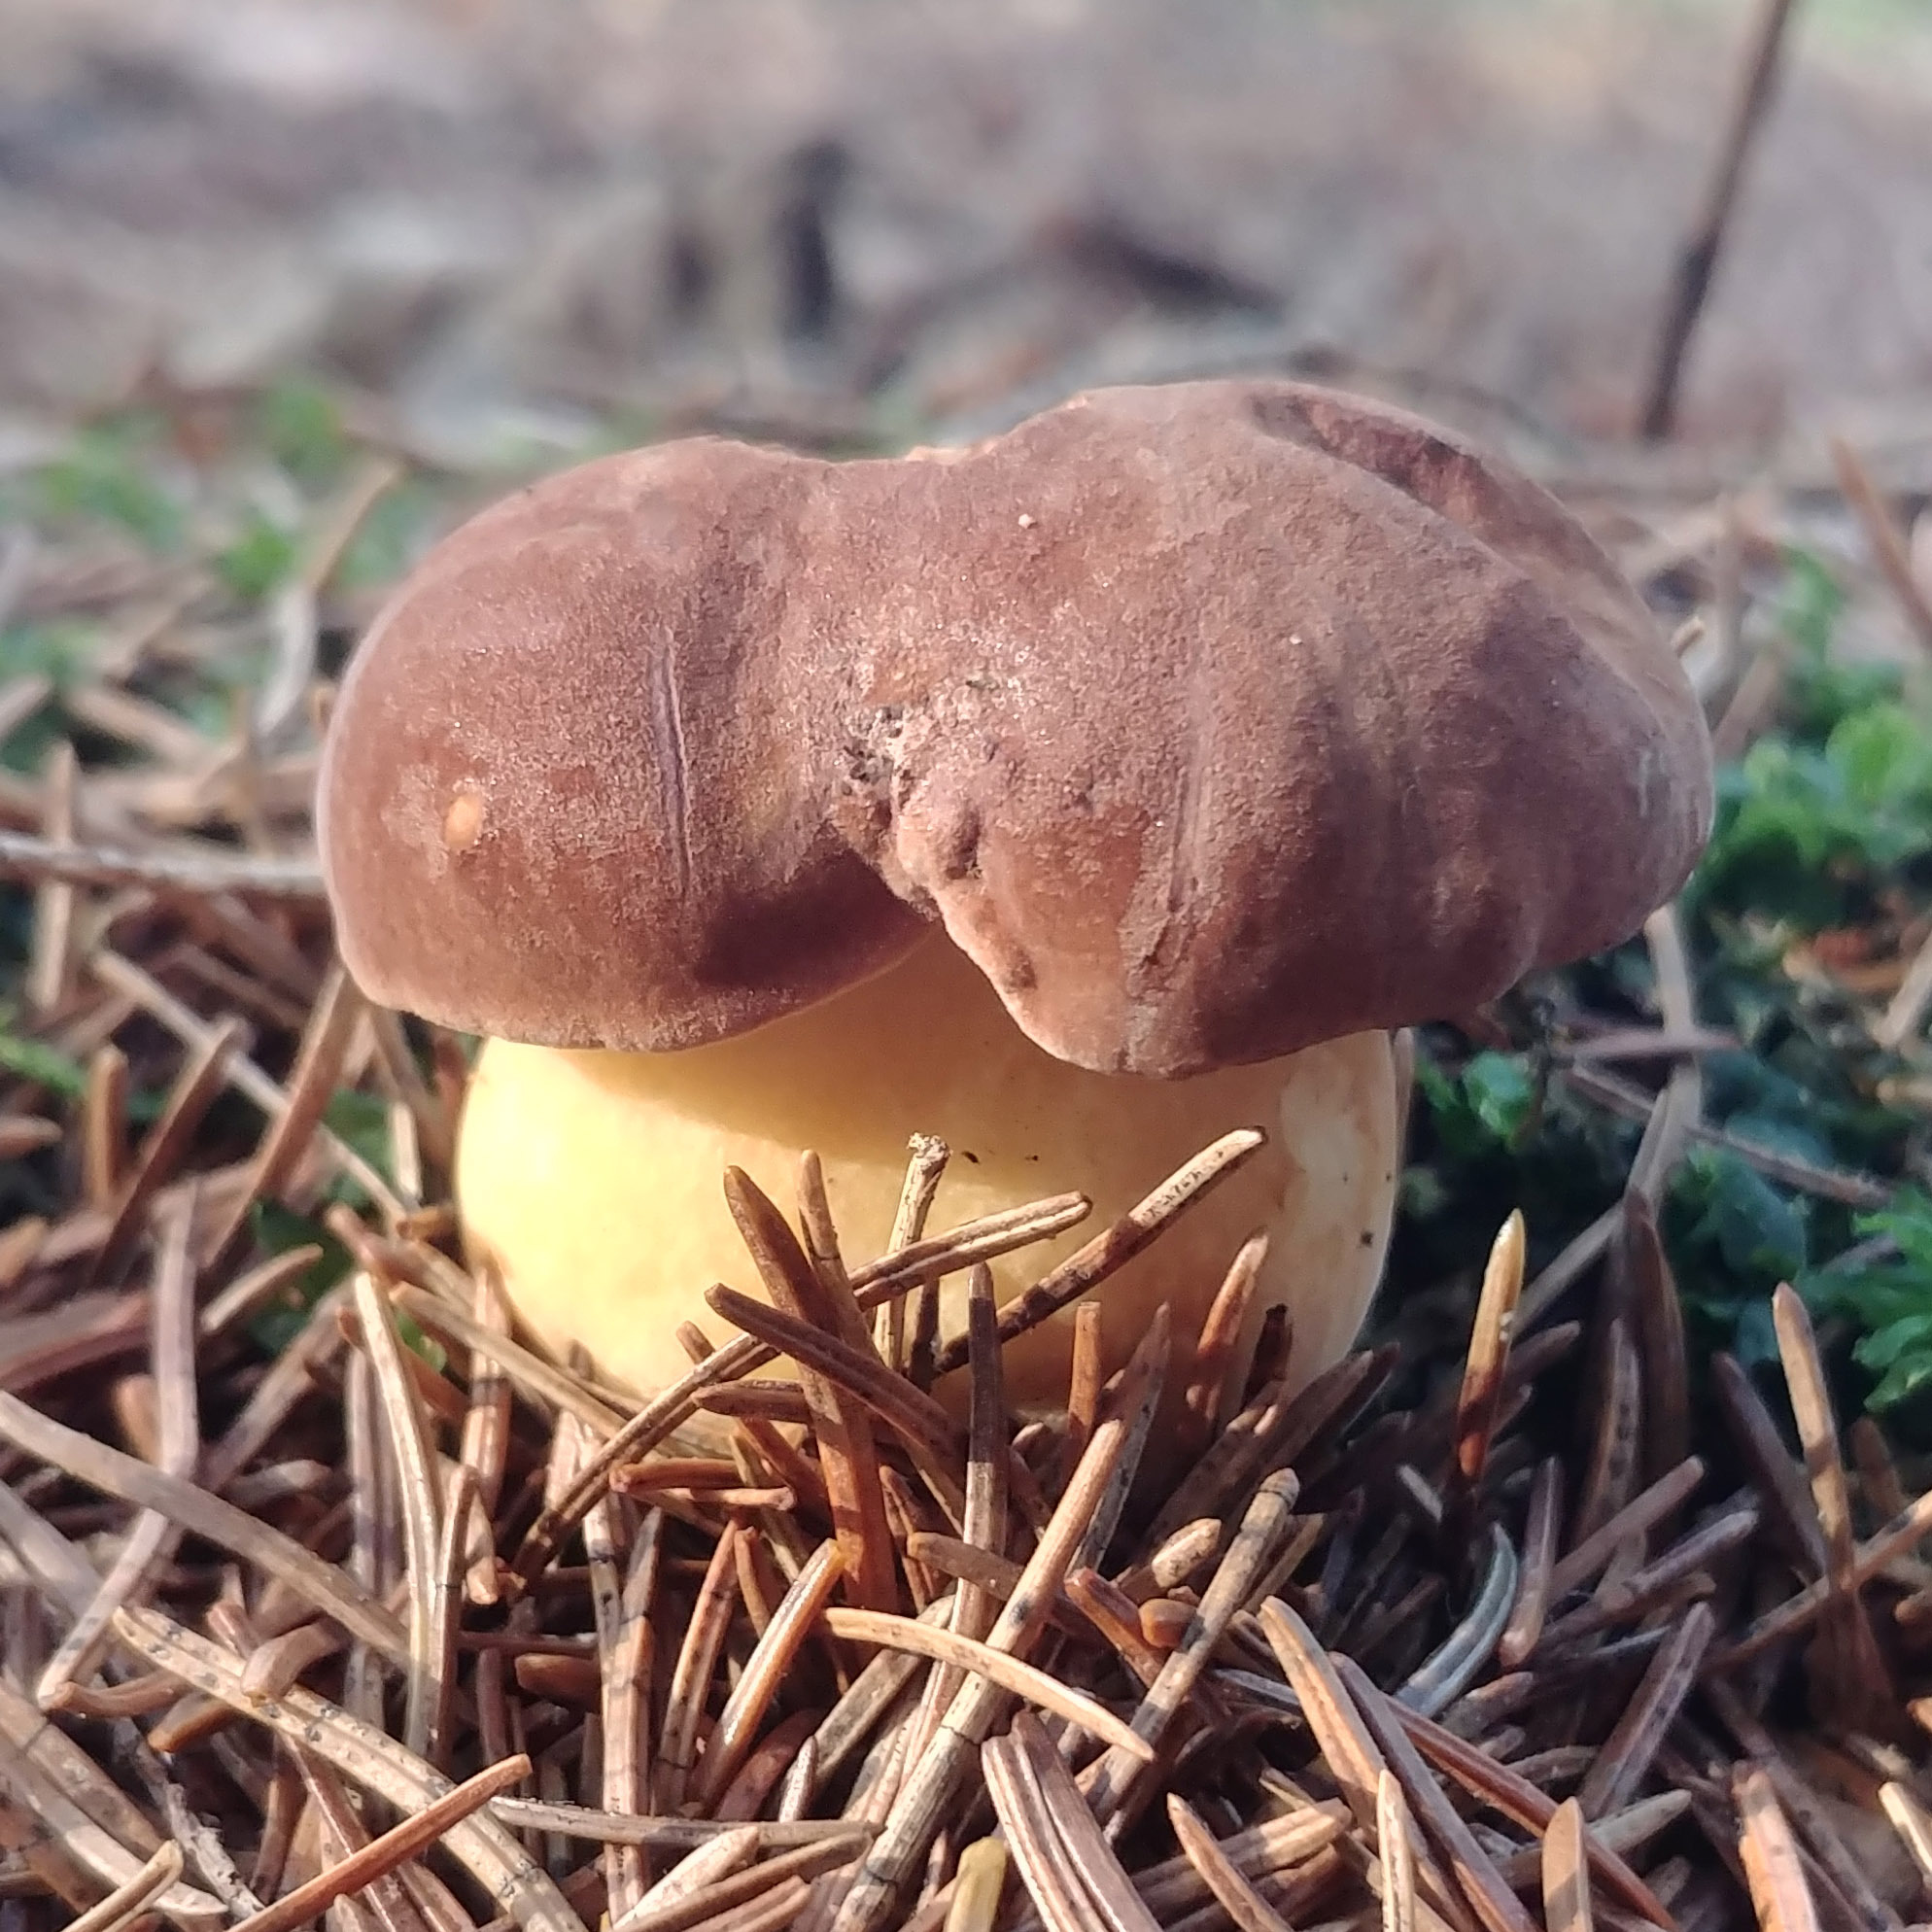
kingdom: Fungi
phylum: Basidiomycota
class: Agaricomycetes
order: Boletales
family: Boletaceae
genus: Imleria
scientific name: Imleria badia
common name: Bay bolete
